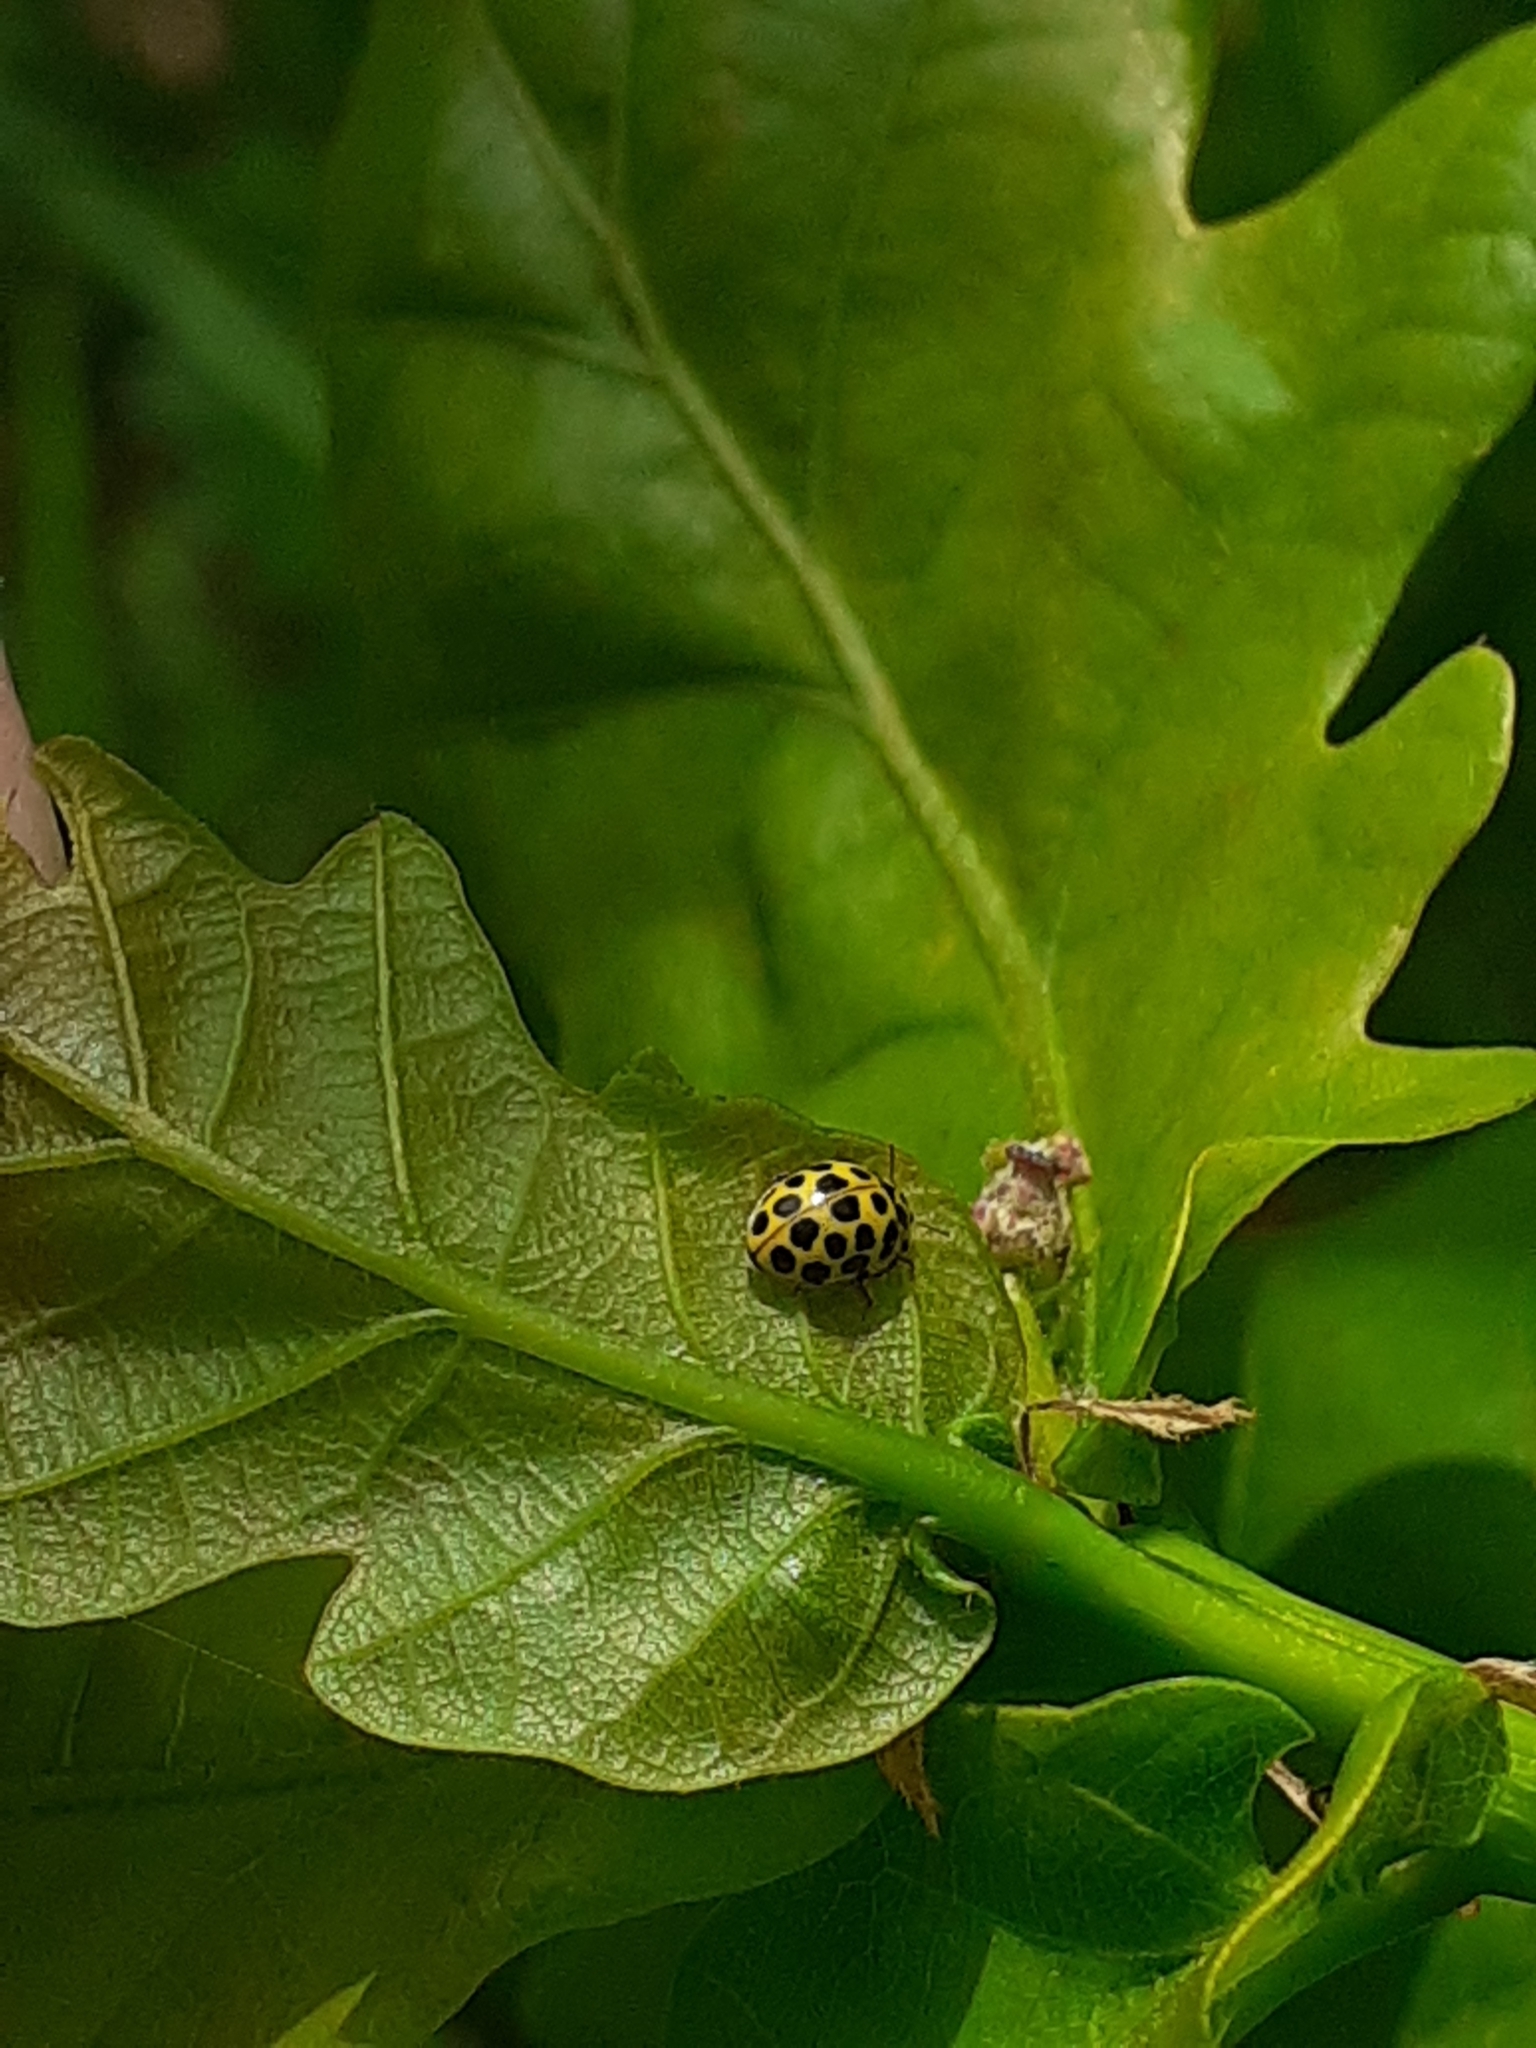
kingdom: Animalia
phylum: Arthropoda
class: Insecta
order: Coleoptera
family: Coccinellidae
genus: Psyllobora
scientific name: Psyllobora vigintiduopunctata
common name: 22-spot ladybird
